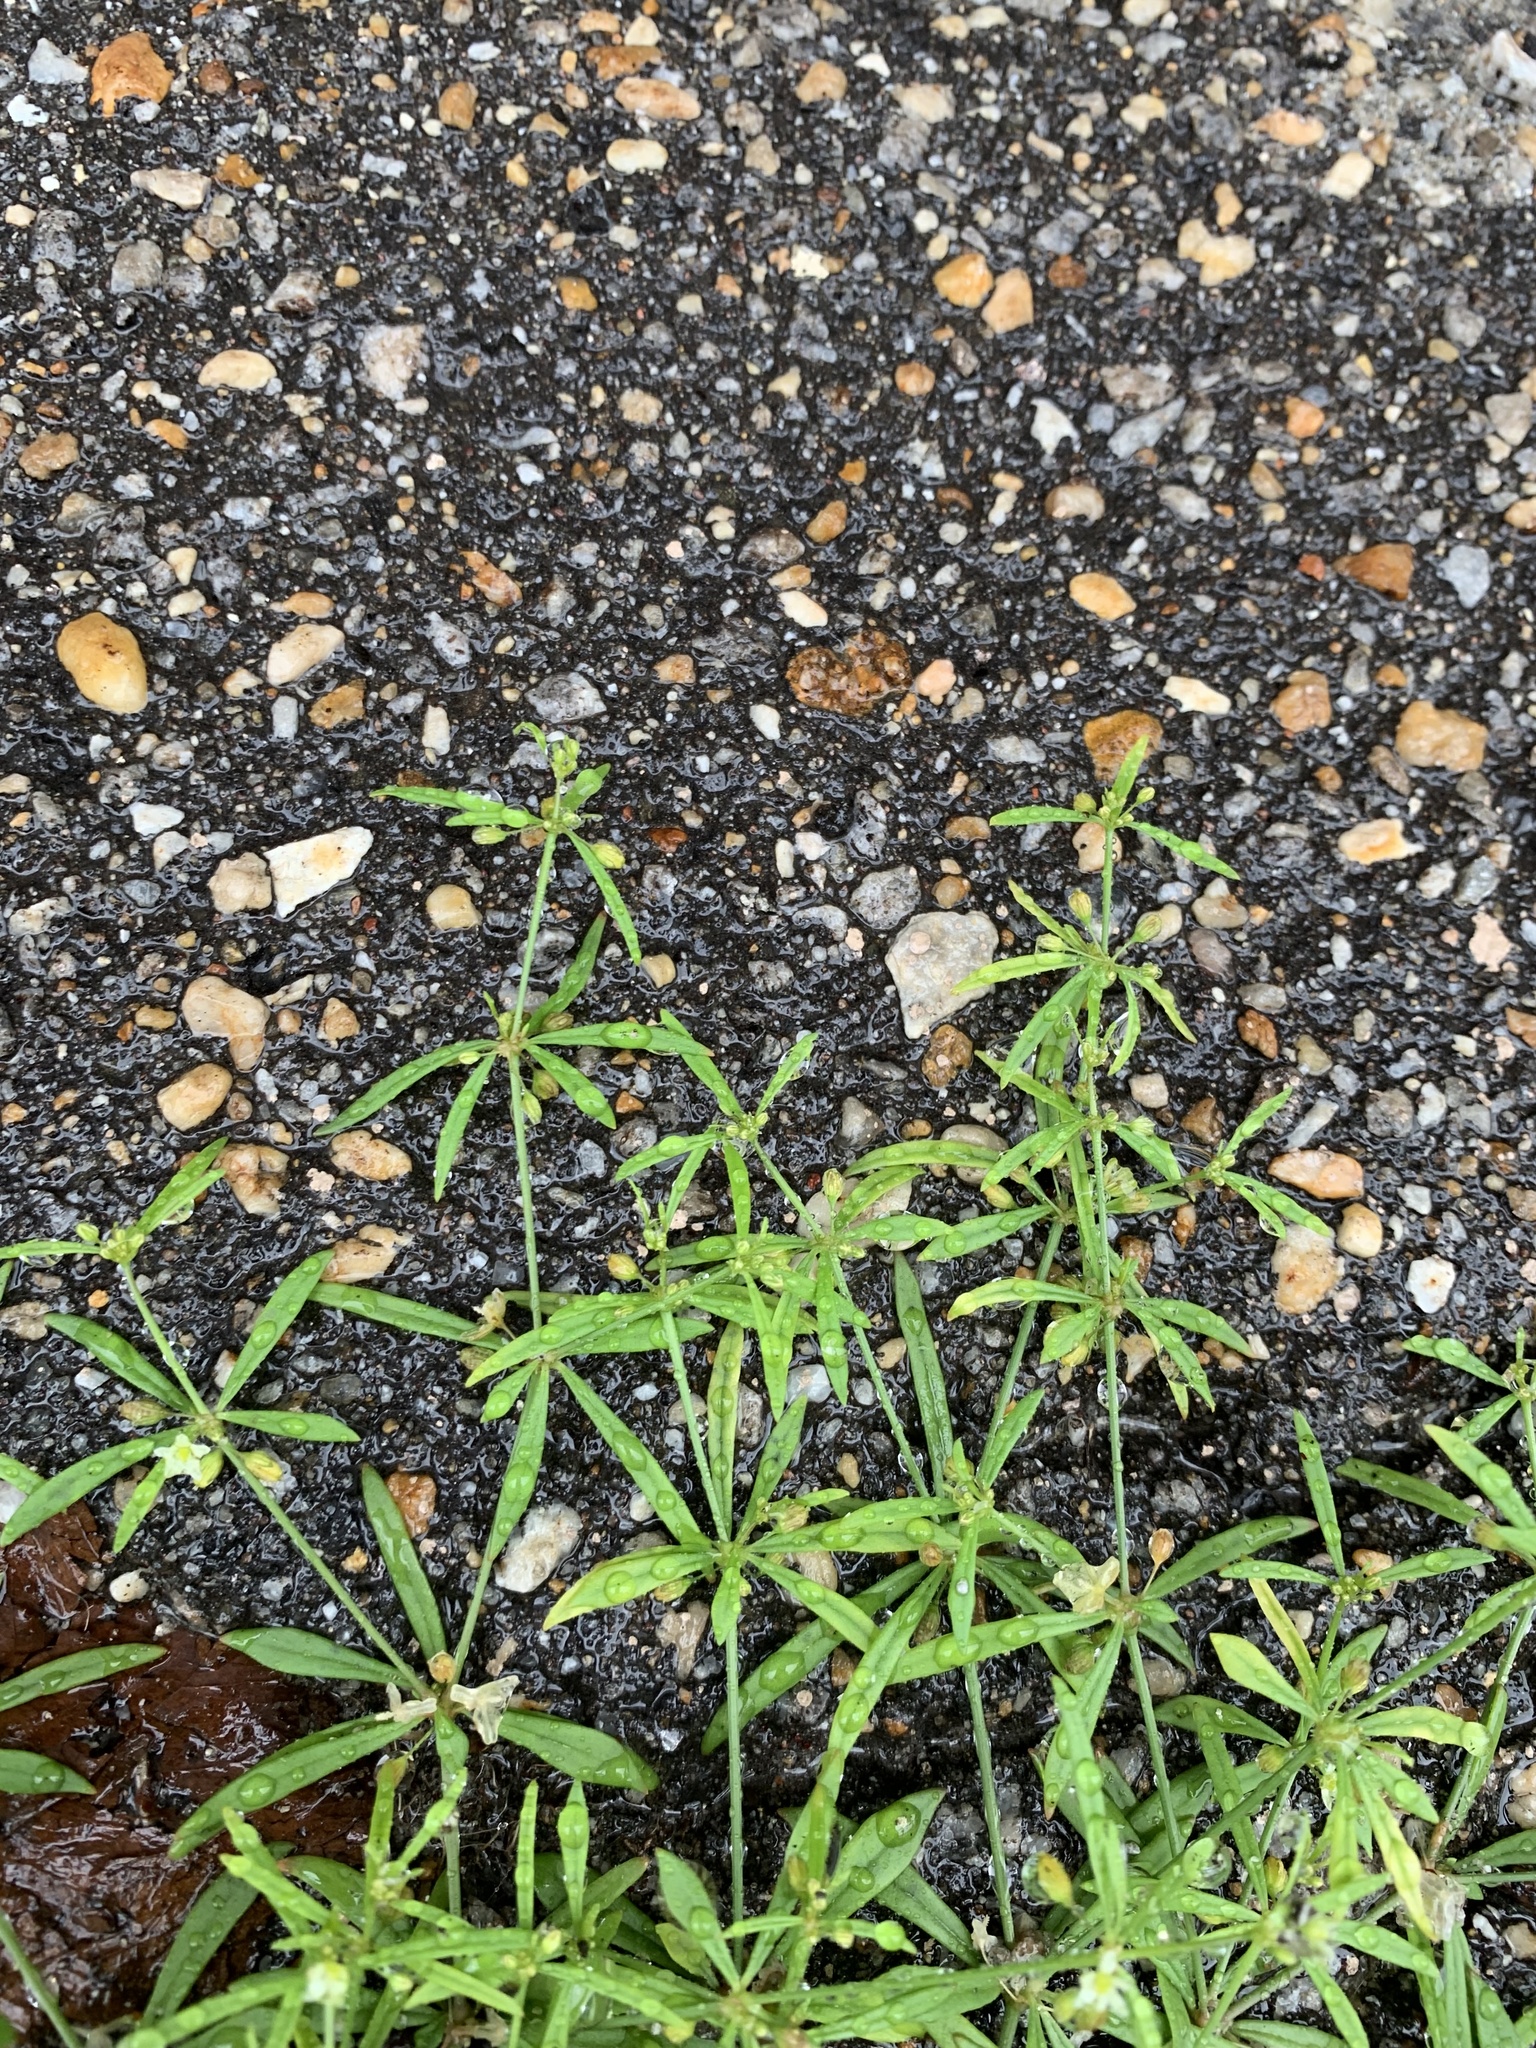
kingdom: Plantae
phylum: Tracheophyta
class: Magnoliopsida
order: Caryophyllales
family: Molluginaceae
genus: Mollugo
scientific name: Mollugo verticillata
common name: Green carpetweed
